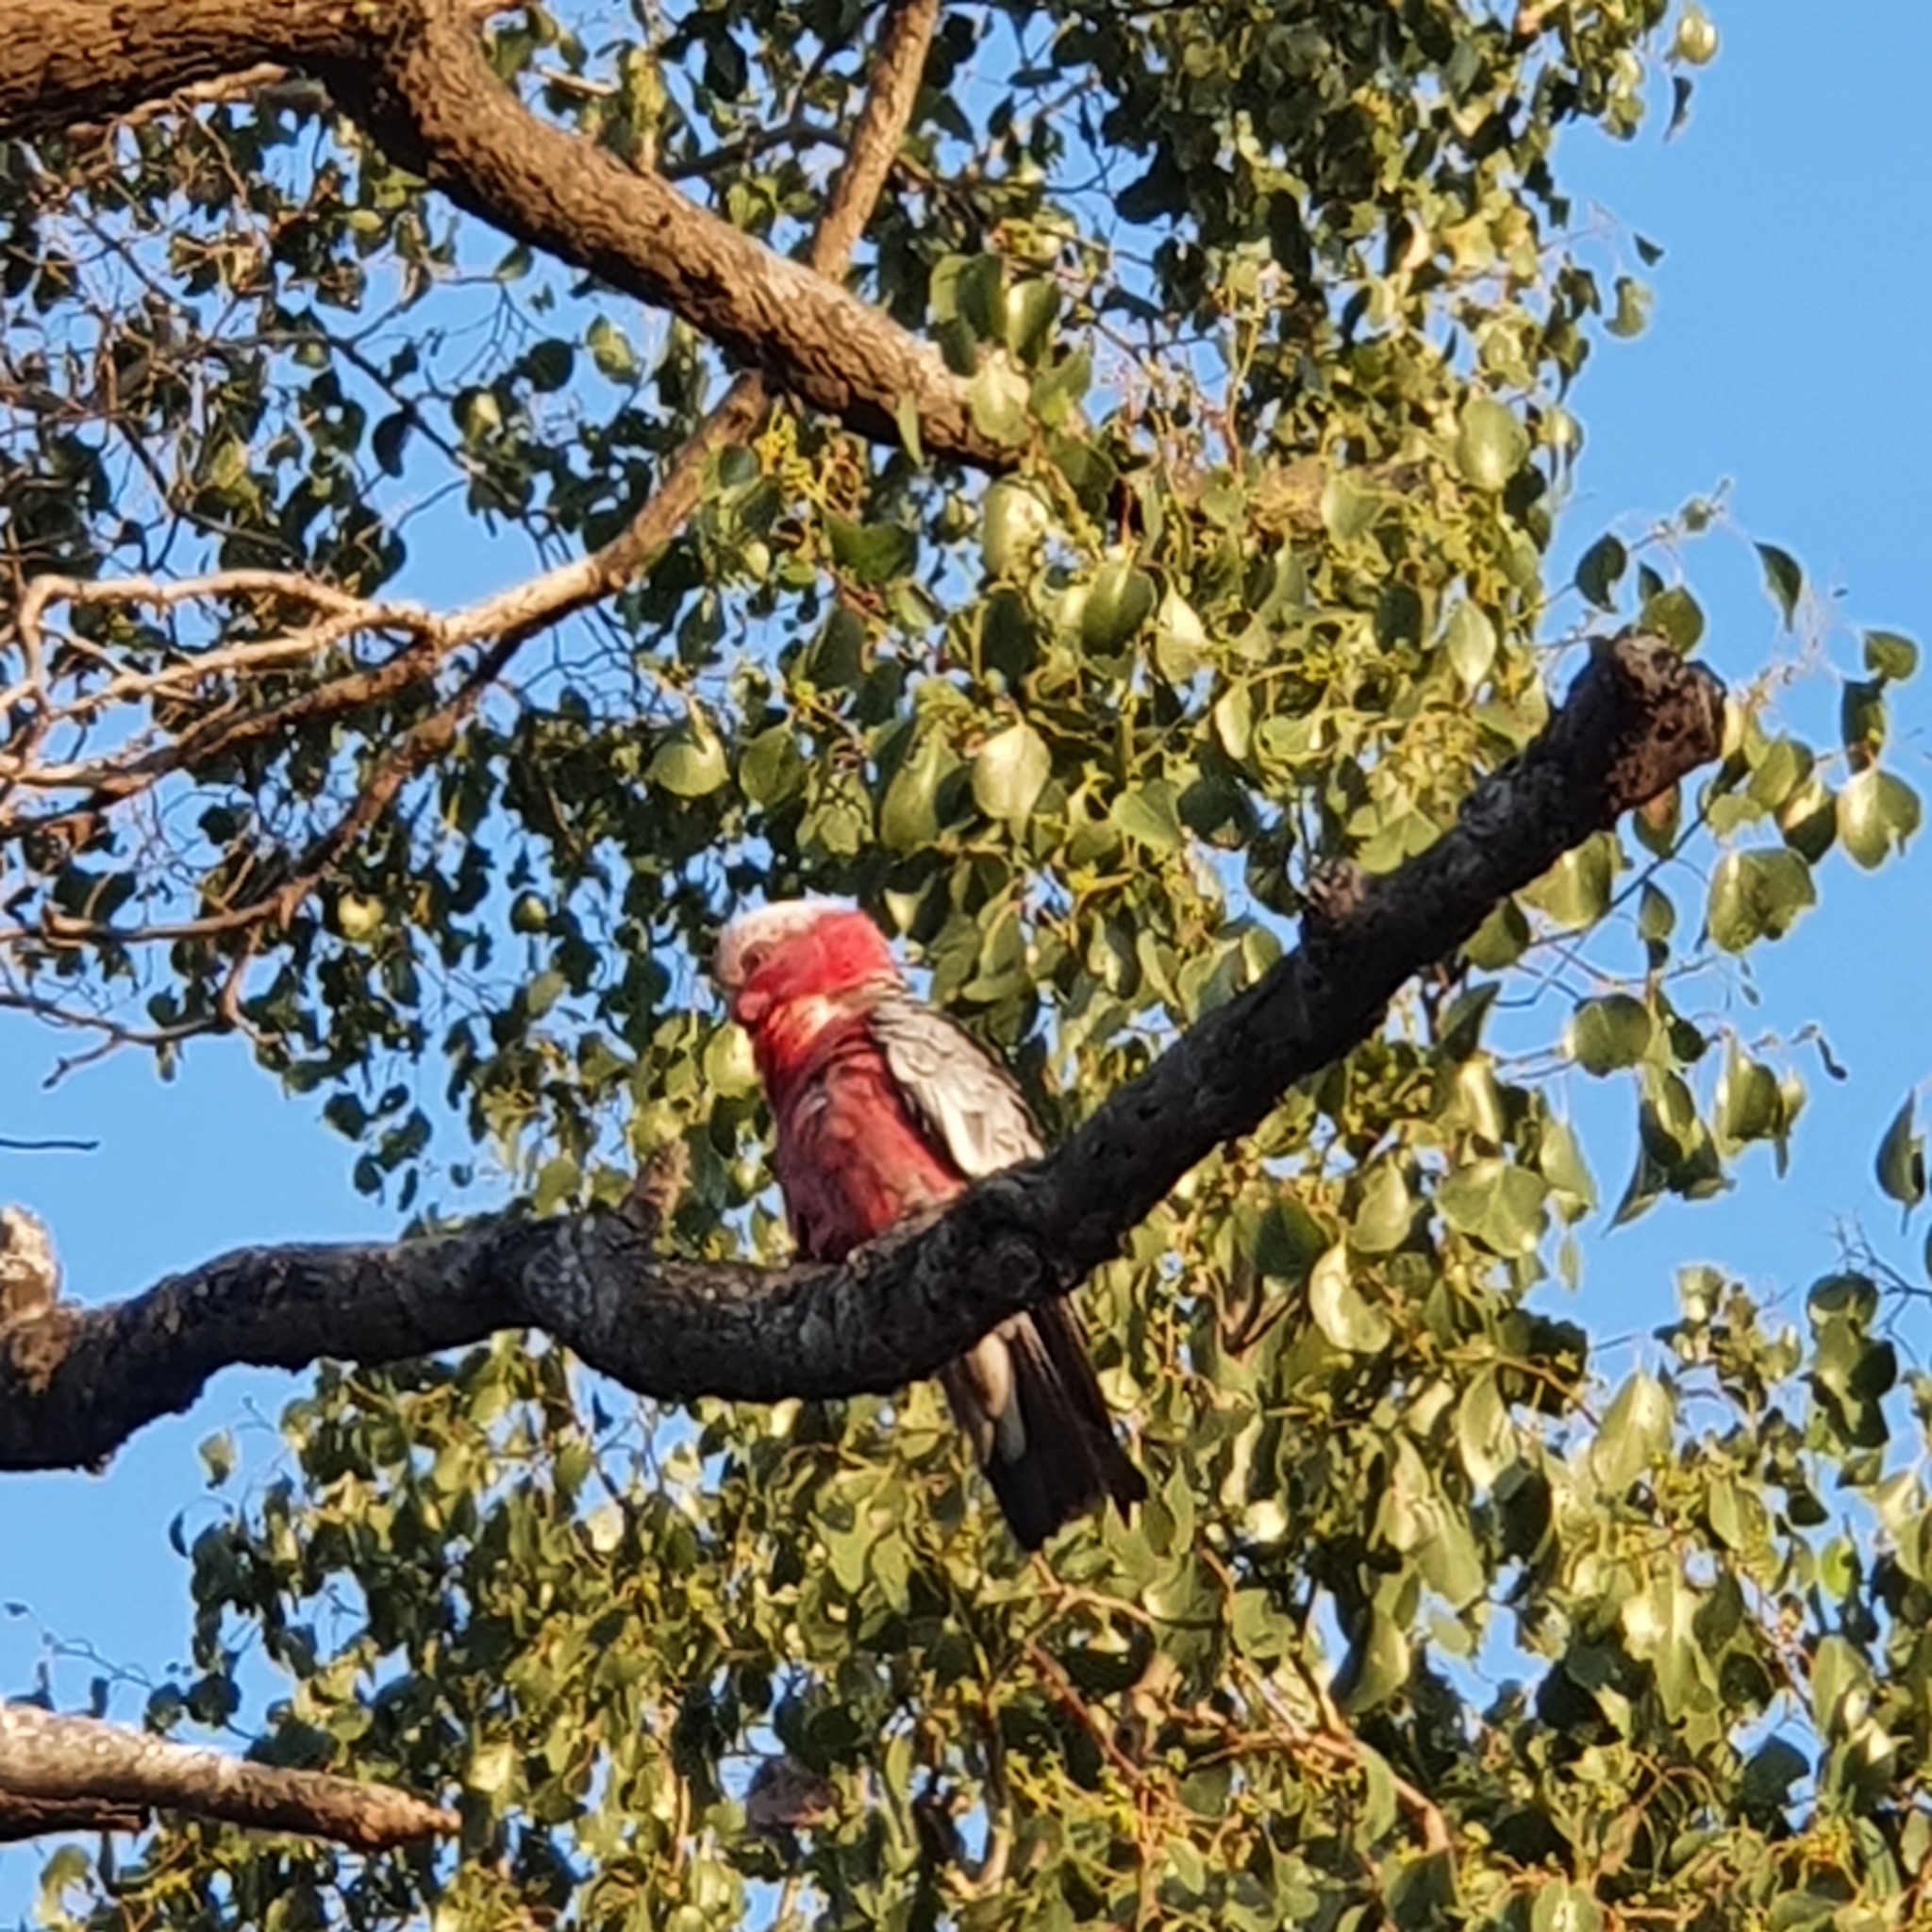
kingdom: Animalia
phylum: Chordata
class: Aves
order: Psittaciformes
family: Psittacidae
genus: Eolophus
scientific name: Eolophus roseicapilla
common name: Galah
